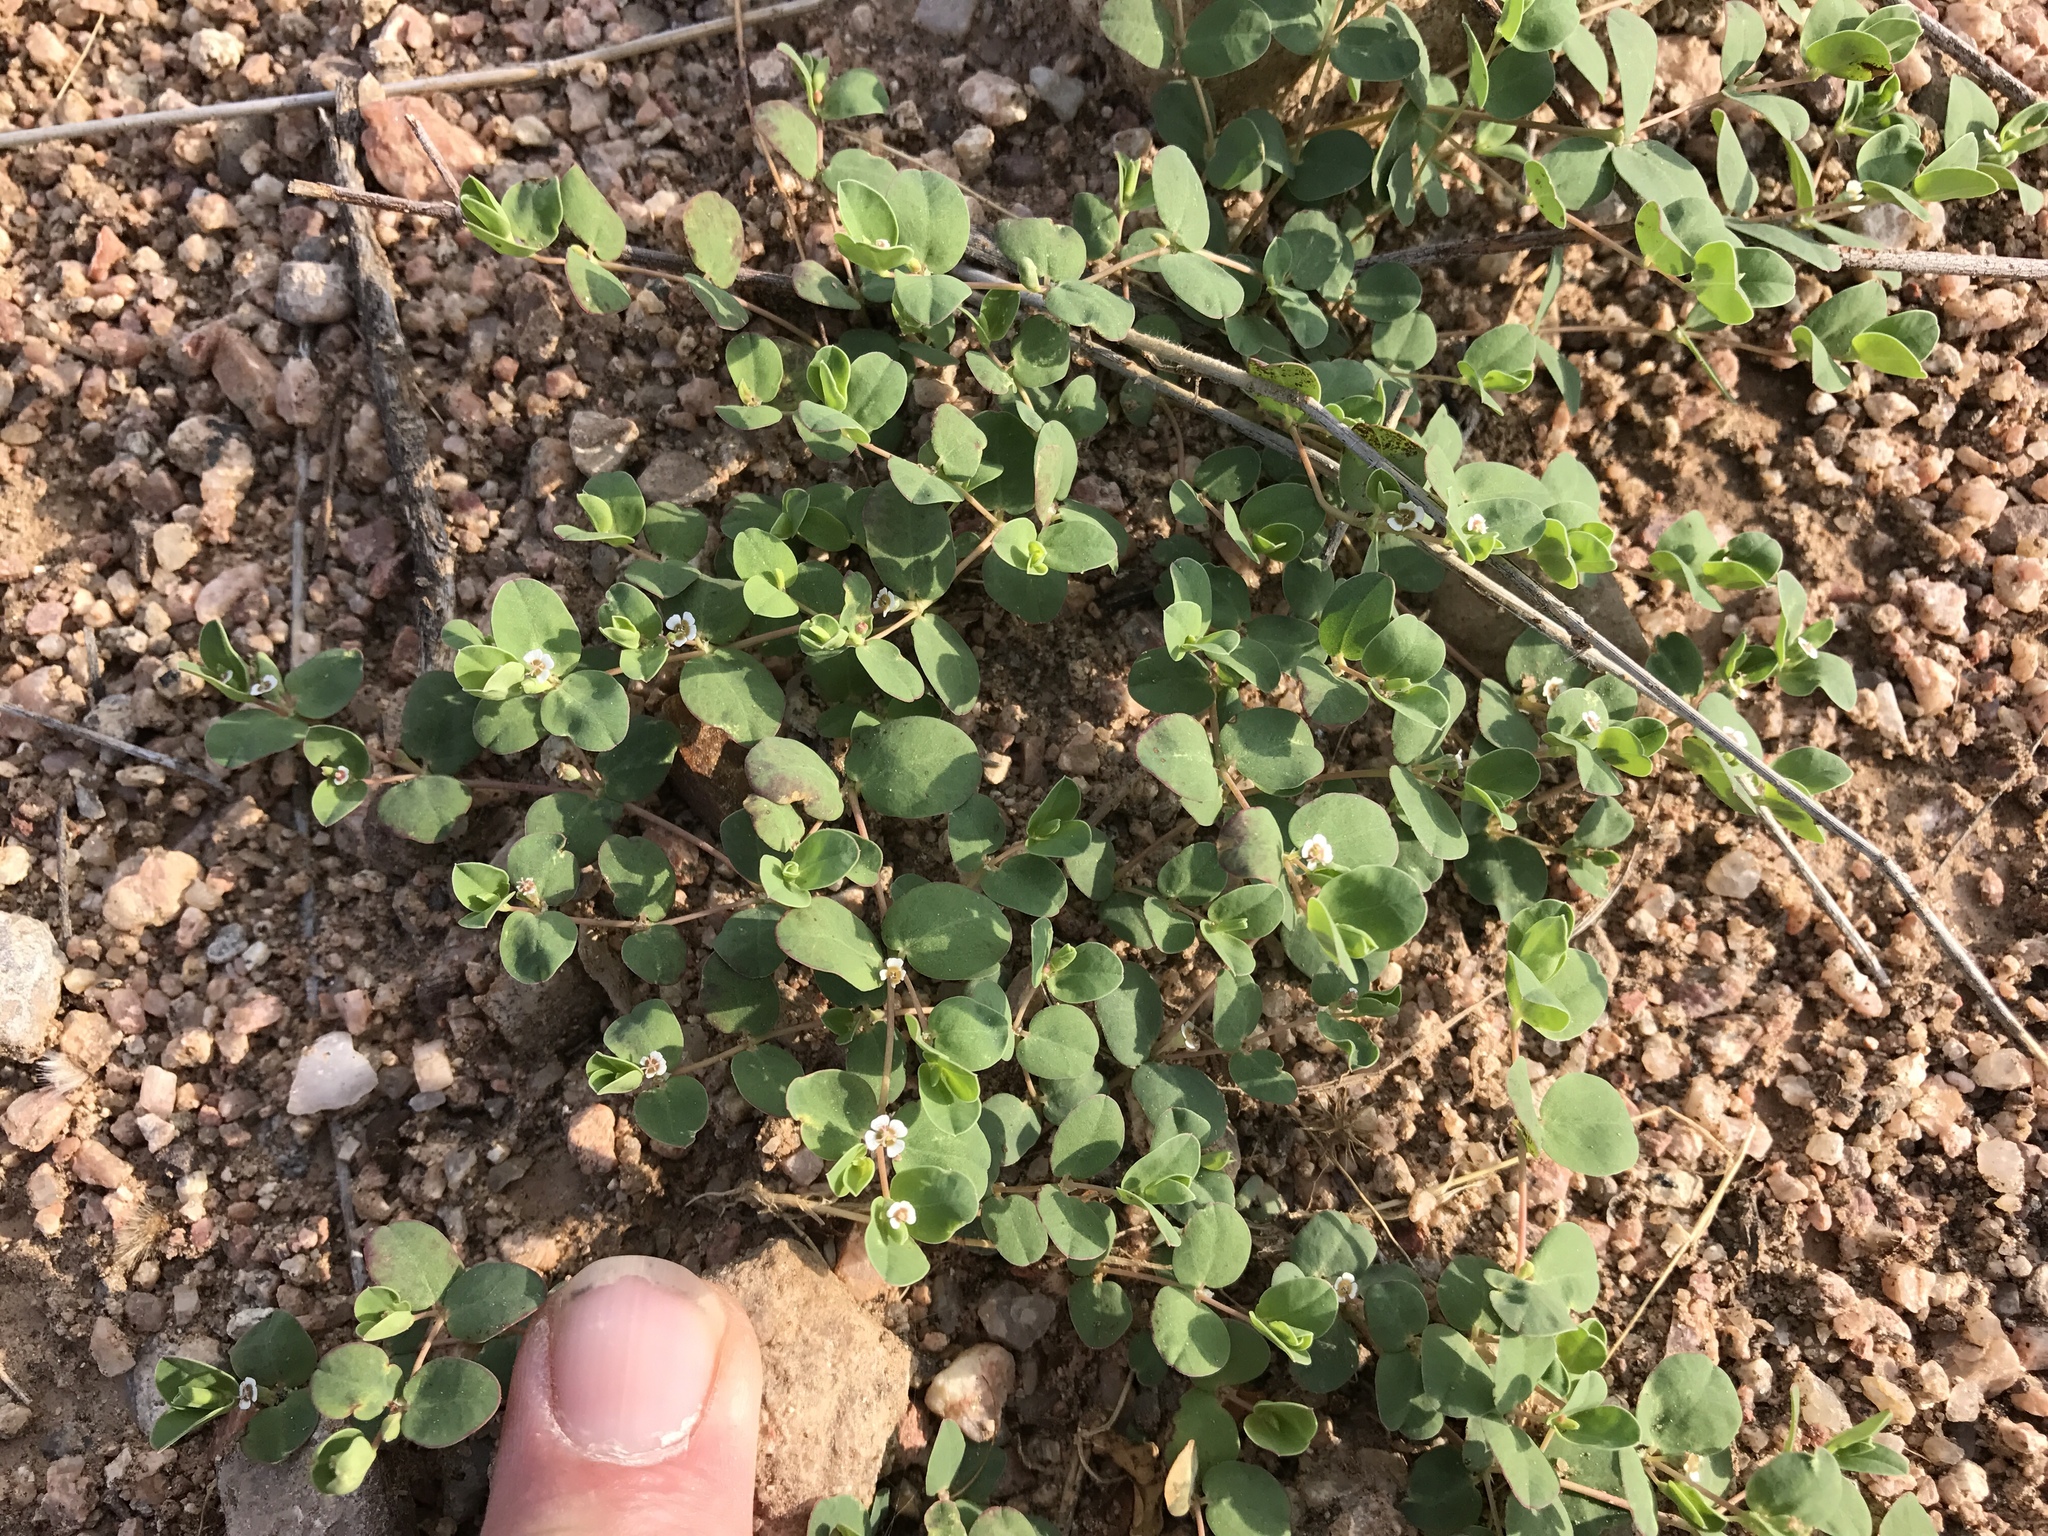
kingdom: Plantae
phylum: Tracheophyta
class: Magnoliopsida
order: Malpighiales
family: Euphorbiaceae
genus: Euphorbia
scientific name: Euphorbia albomarginata
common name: Whitemargin sandmat
